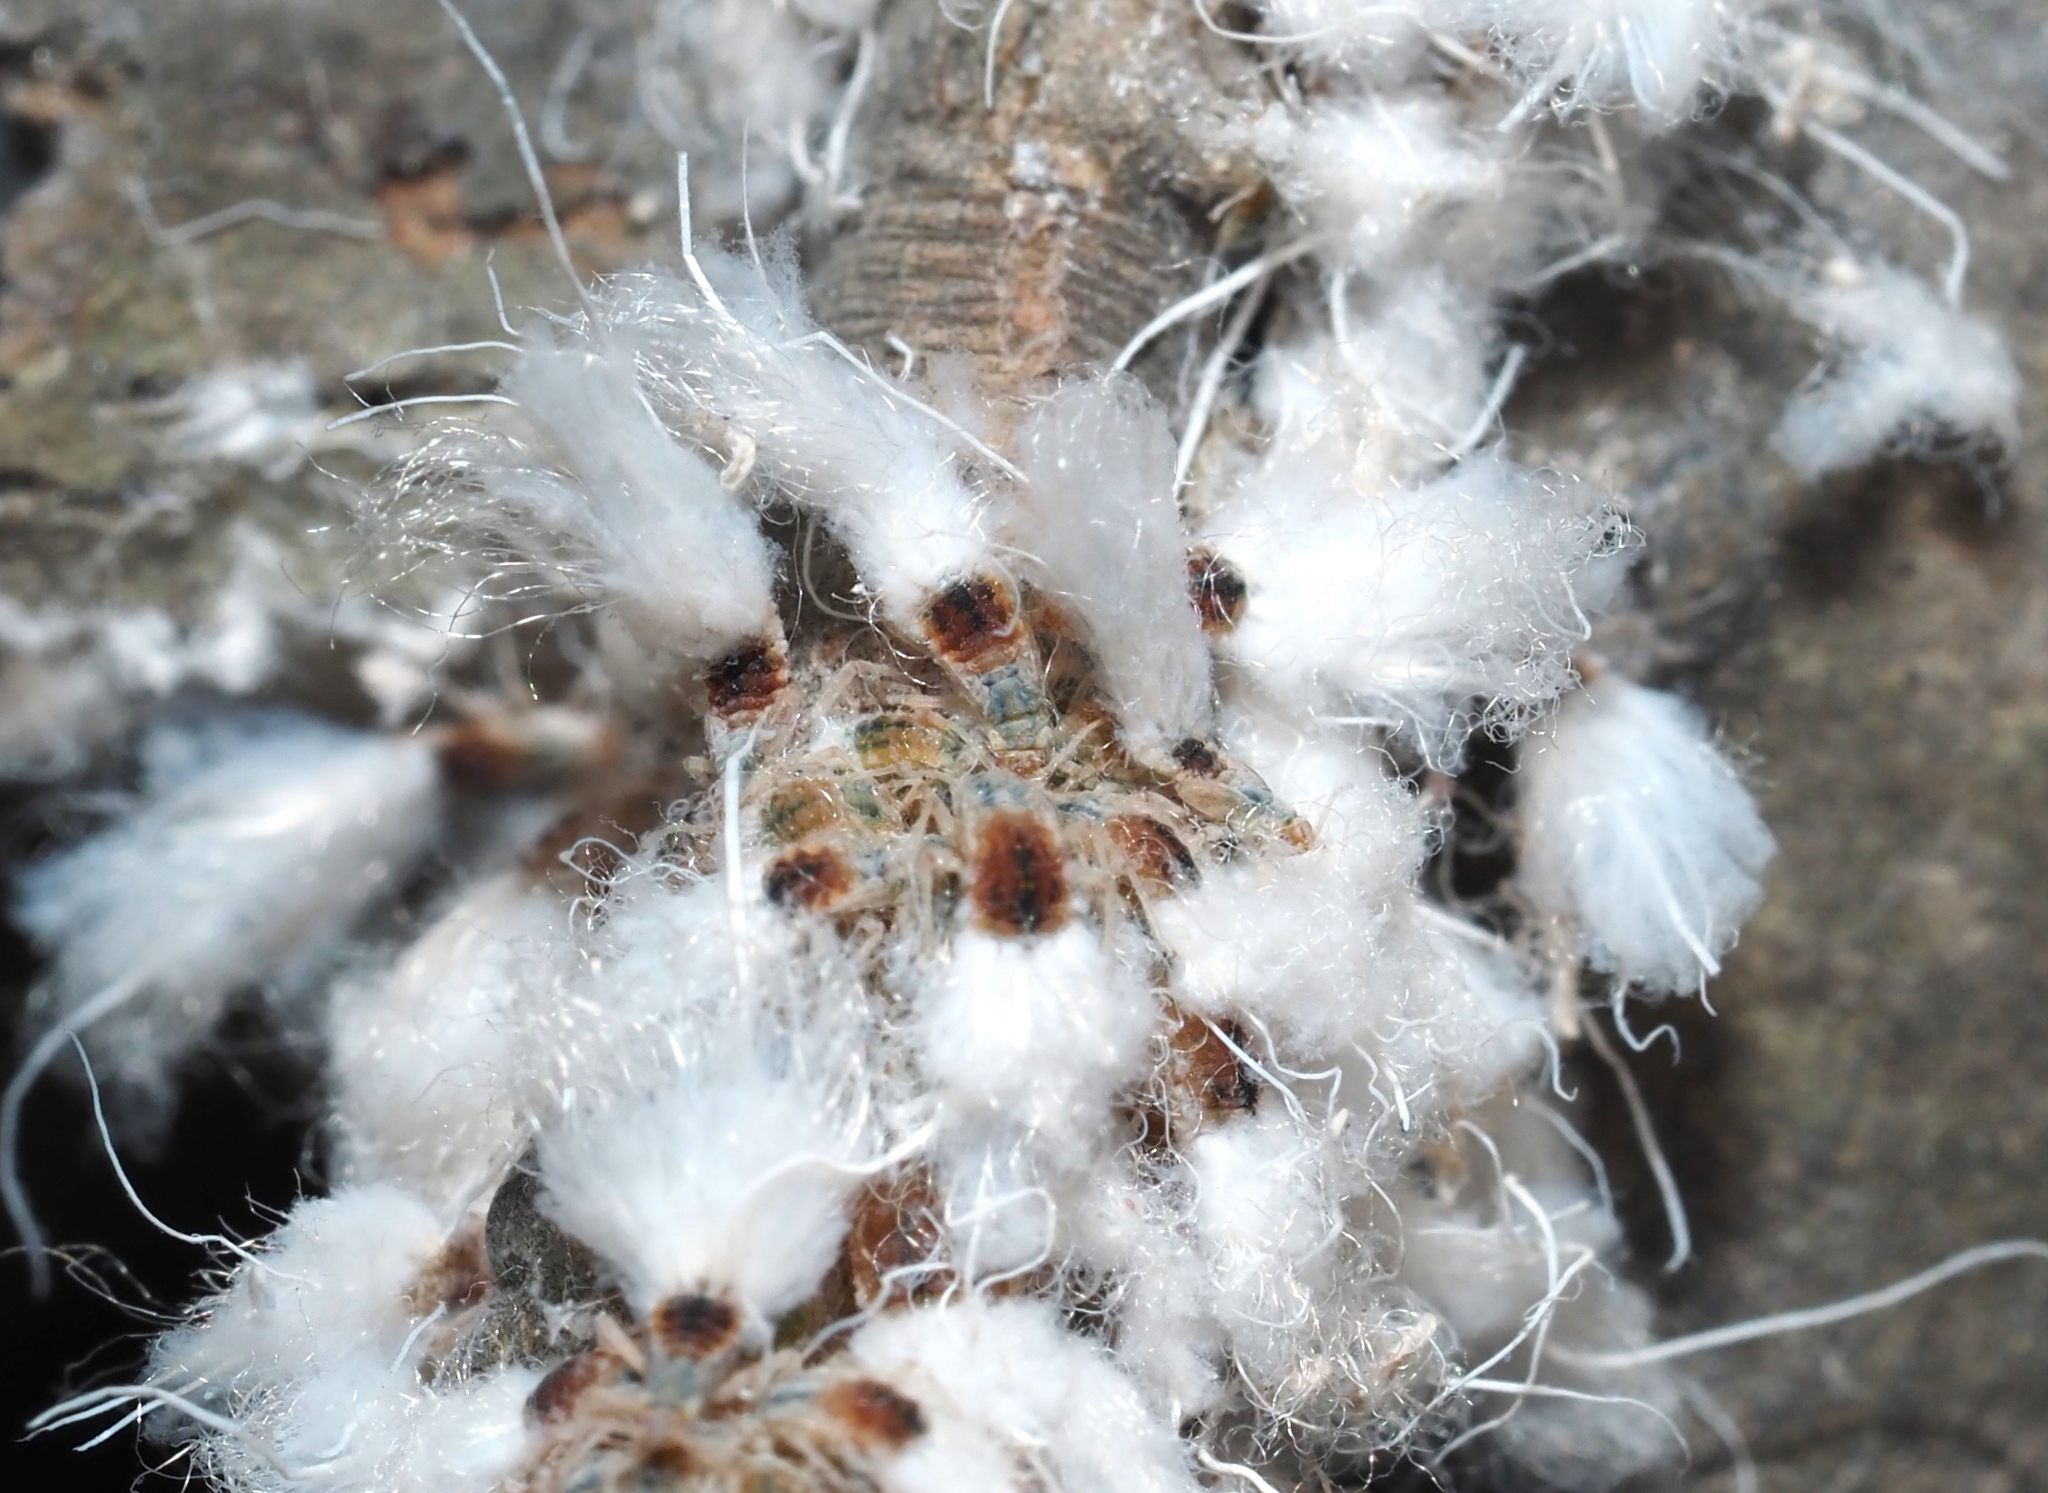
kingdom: Animalia
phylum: Arthropoda
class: Insecta
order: Hemiptera
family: Aphididae
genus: Grylloprociphilus
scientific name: Grylloprociphilus imbricator
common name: Beech blight aphid
